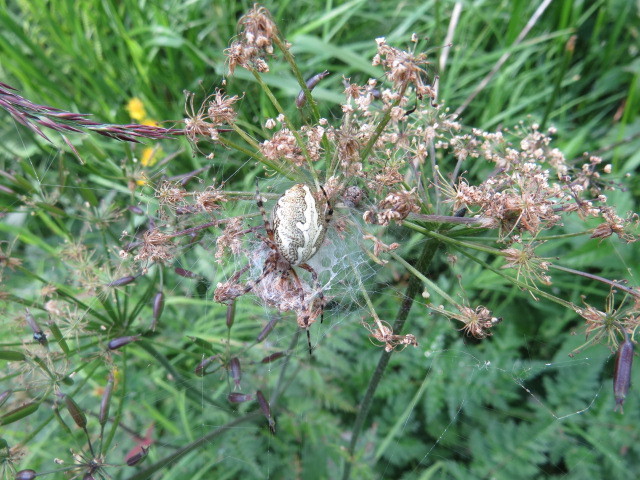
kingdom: Animalia
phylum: Arthropoda
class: Arachnida
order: Araneae
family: Araneidae
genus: Aculepeira
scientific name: Aculepeira ceropegia
